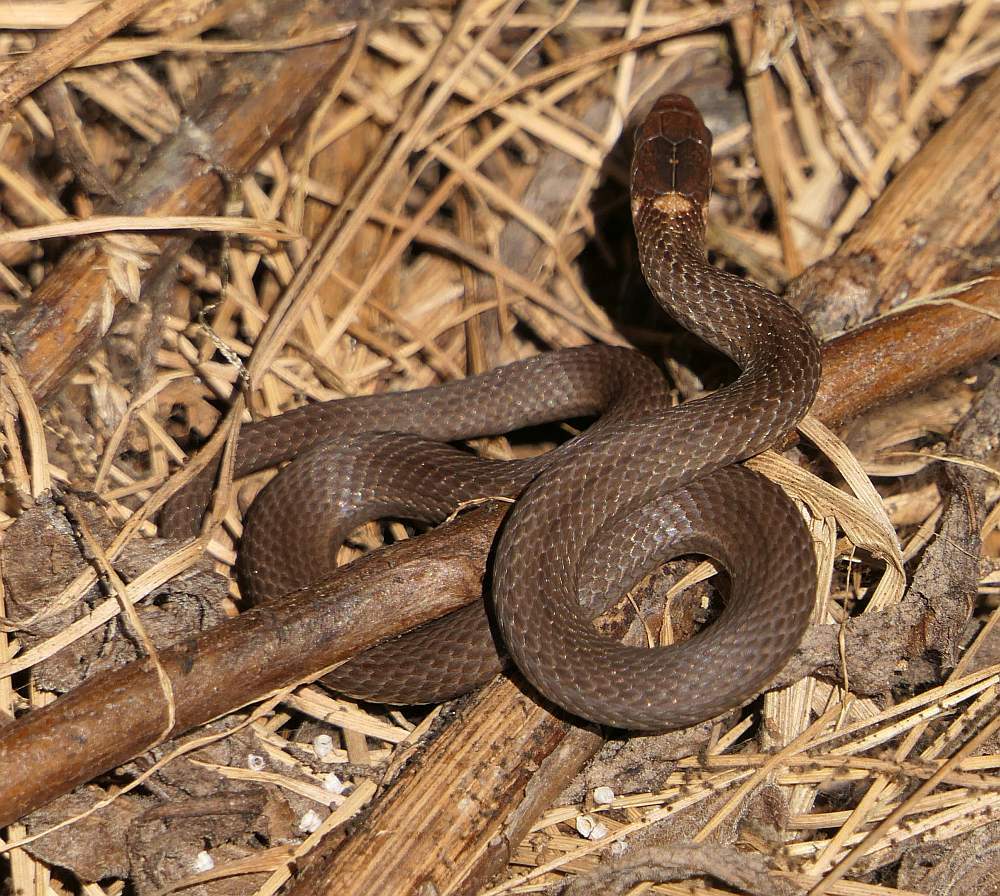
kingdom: Animalia
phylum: Chordata
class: Squamata
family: Colubridae
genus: Storeria
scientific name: Storeria occipitomaculata
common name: Redbelly snake
